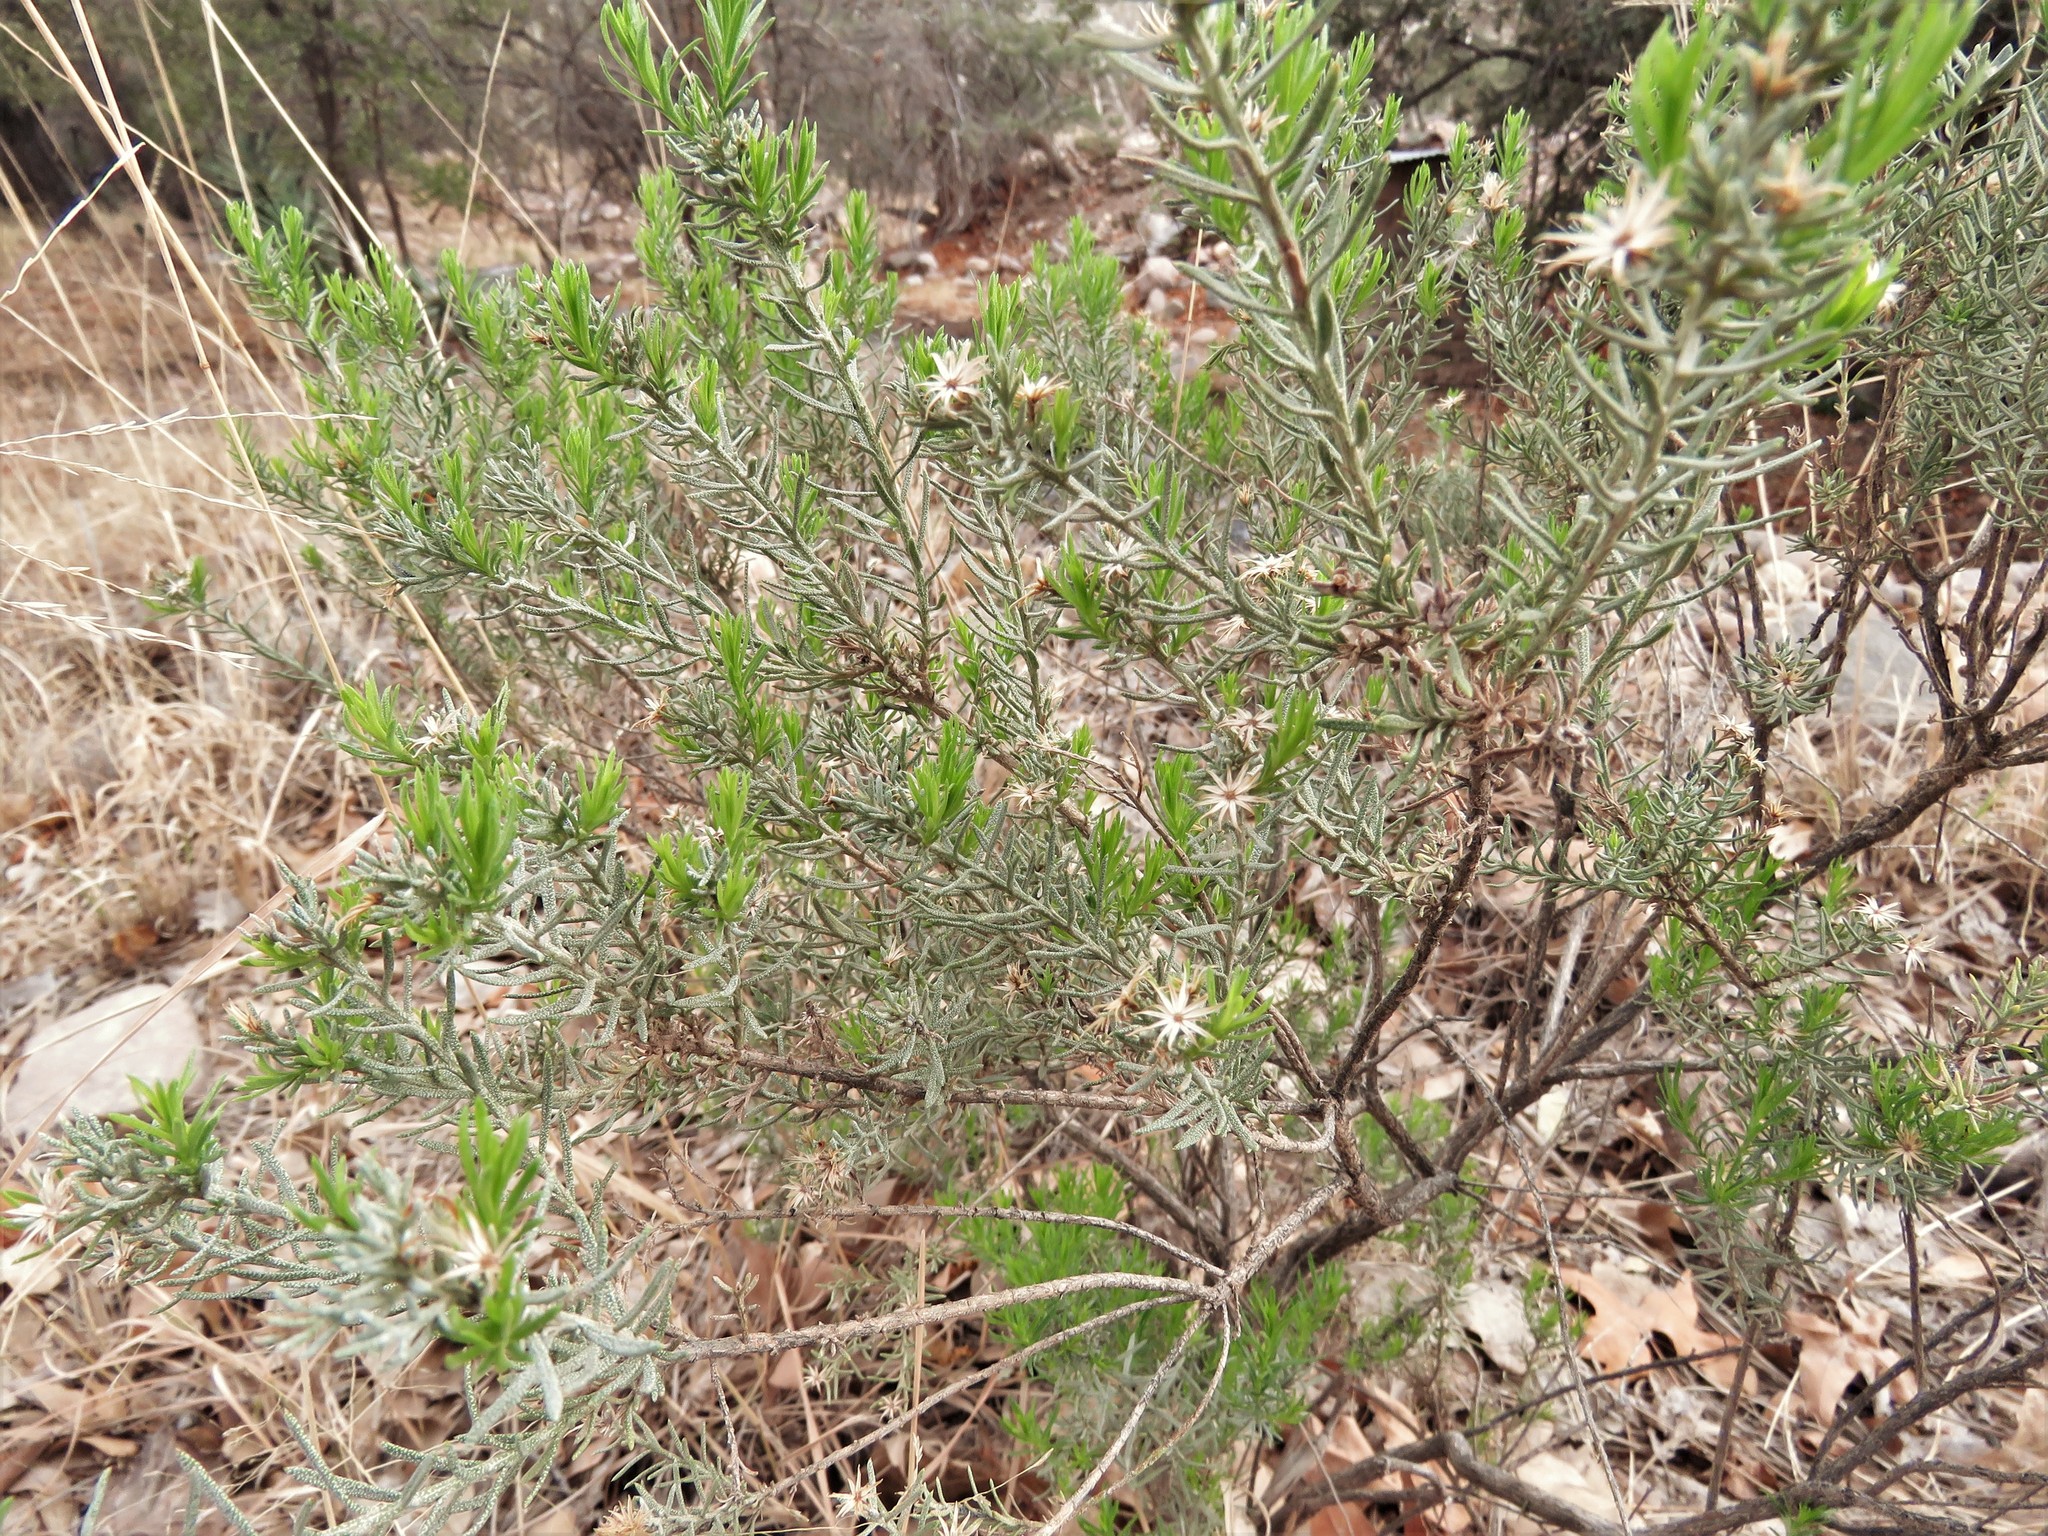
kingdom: Plantae
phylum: Tracheophyta
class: Magnoliopsida
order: Asterales
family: Asteraceae
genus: Ericameria
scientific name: Ericameria laricifolia
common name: Turpentine-bush
